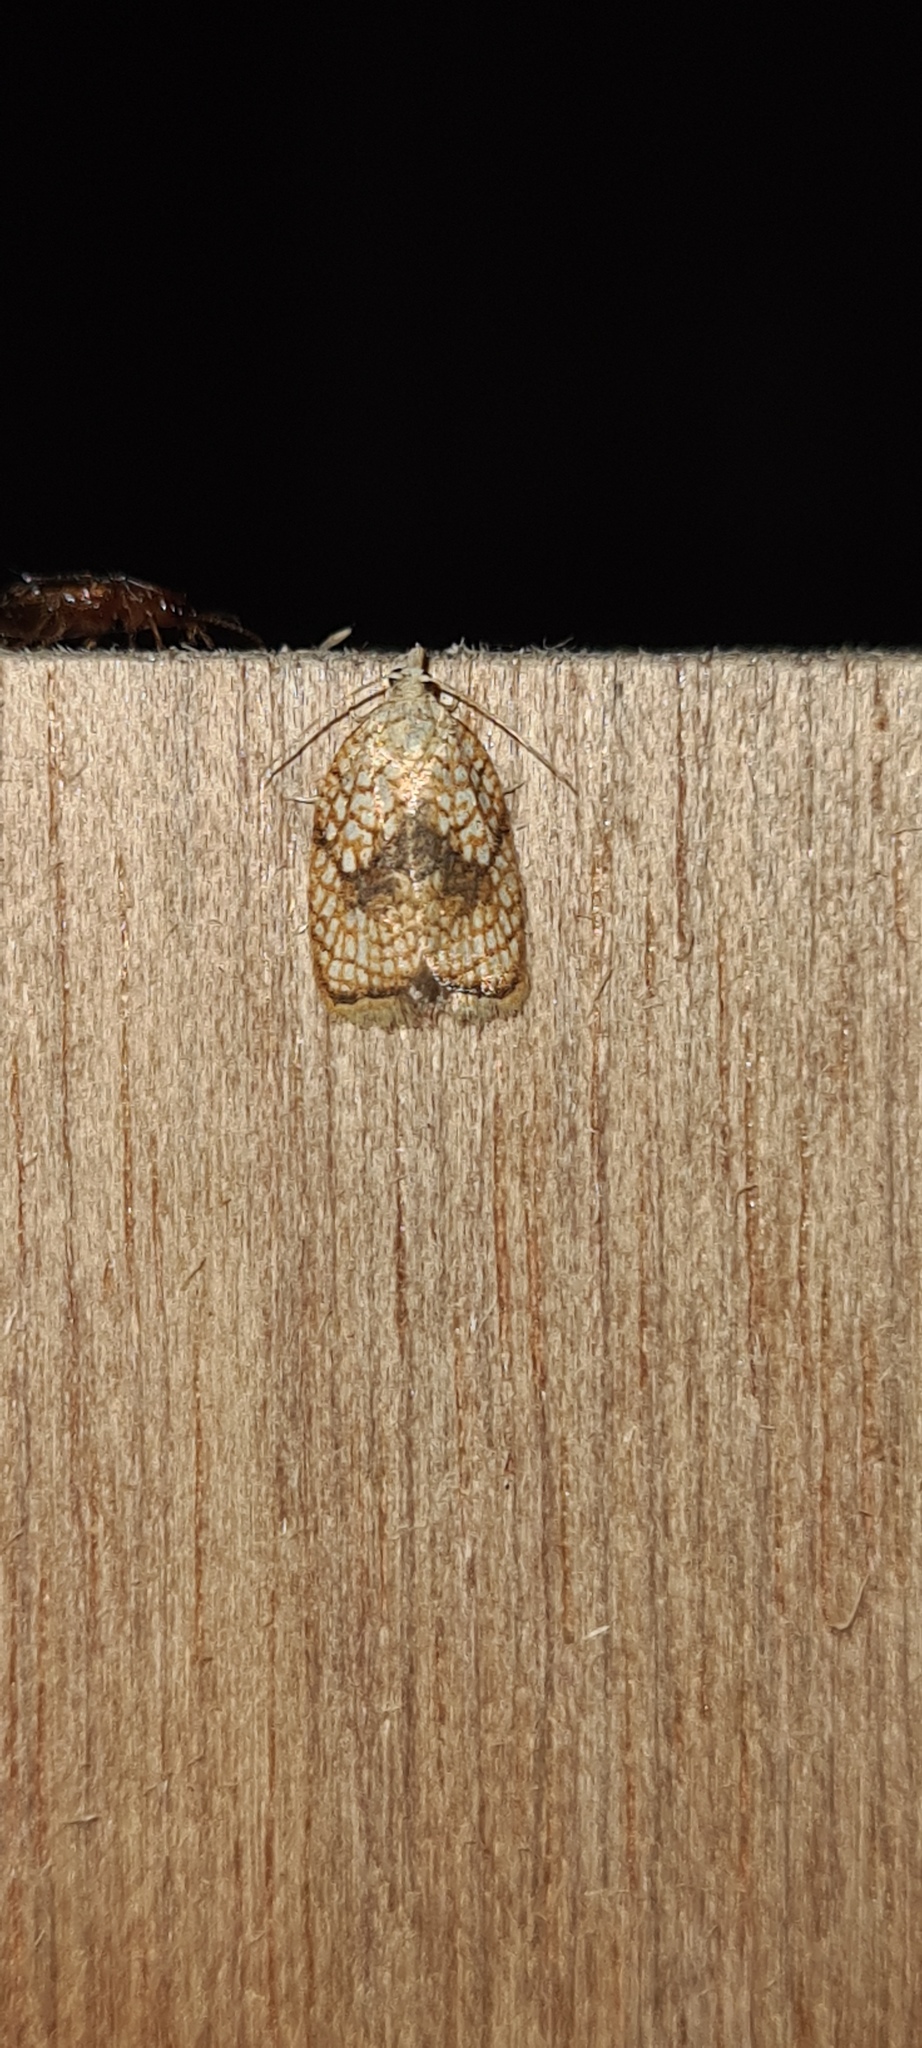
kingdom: Animalia
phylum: Arthropoda
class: Insecta
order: Lepidoptera
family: Tortricidae
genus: Acleris
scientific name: Acleris forsskaleana
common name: Maple button
